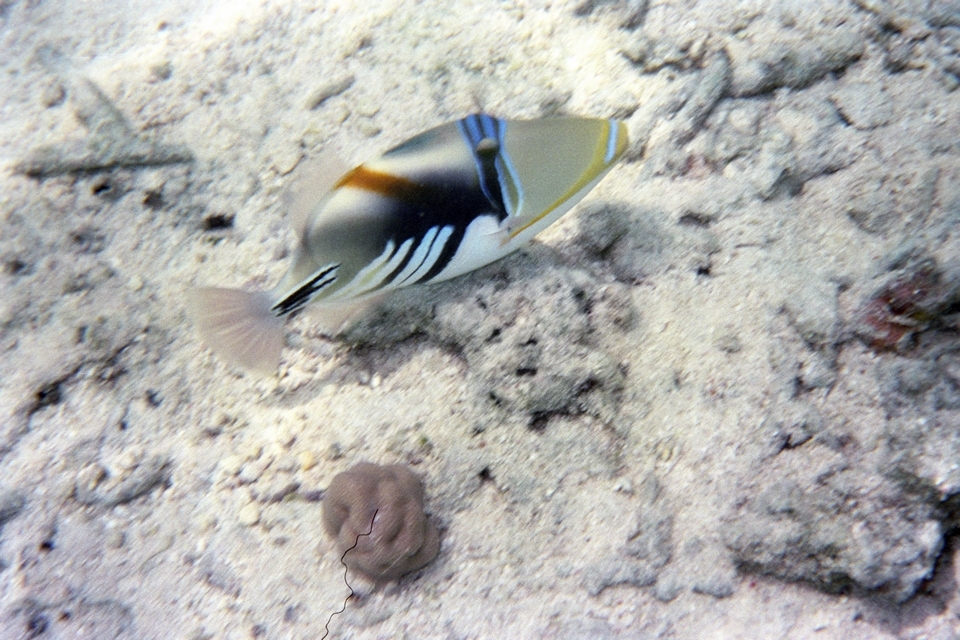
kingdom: Animalia
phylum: Chordata
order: Tetraodontiformes
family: Balistidae
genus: Rhinecanthus
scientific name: Rhinecanthus aculeatus
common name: White-banded triggerfish
